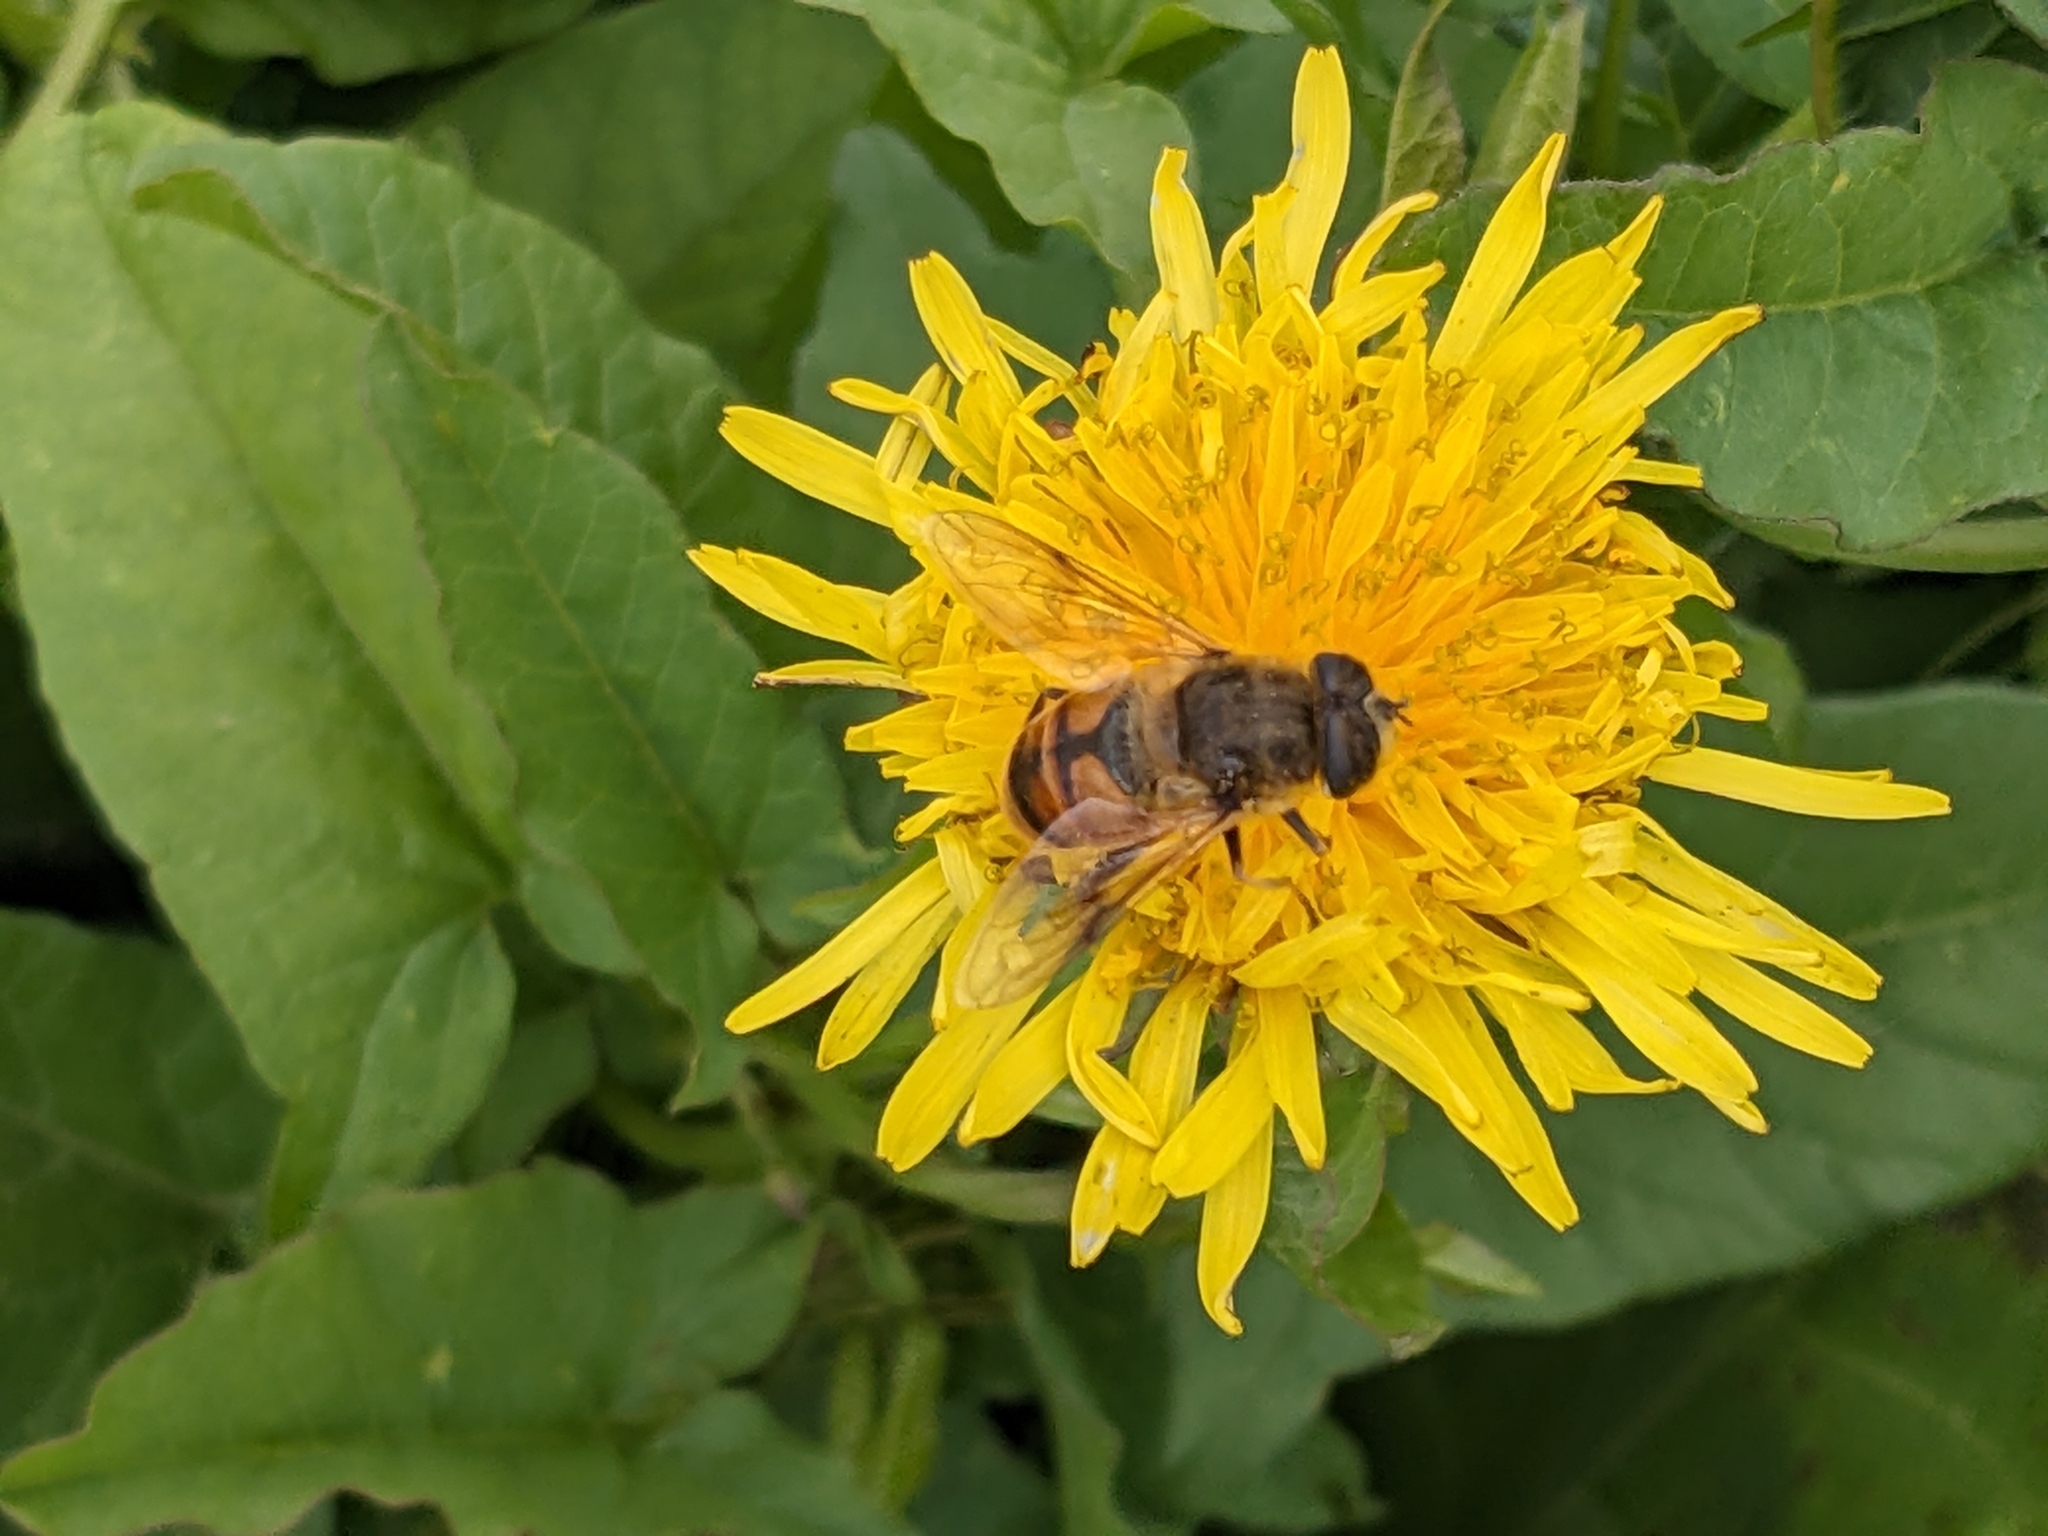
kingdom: Animalia
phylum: Arthropoda
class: Insecta
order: Diptera
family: Syrphidae
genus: Eristalis
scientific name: Eristalis tenax
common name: Drone fly
